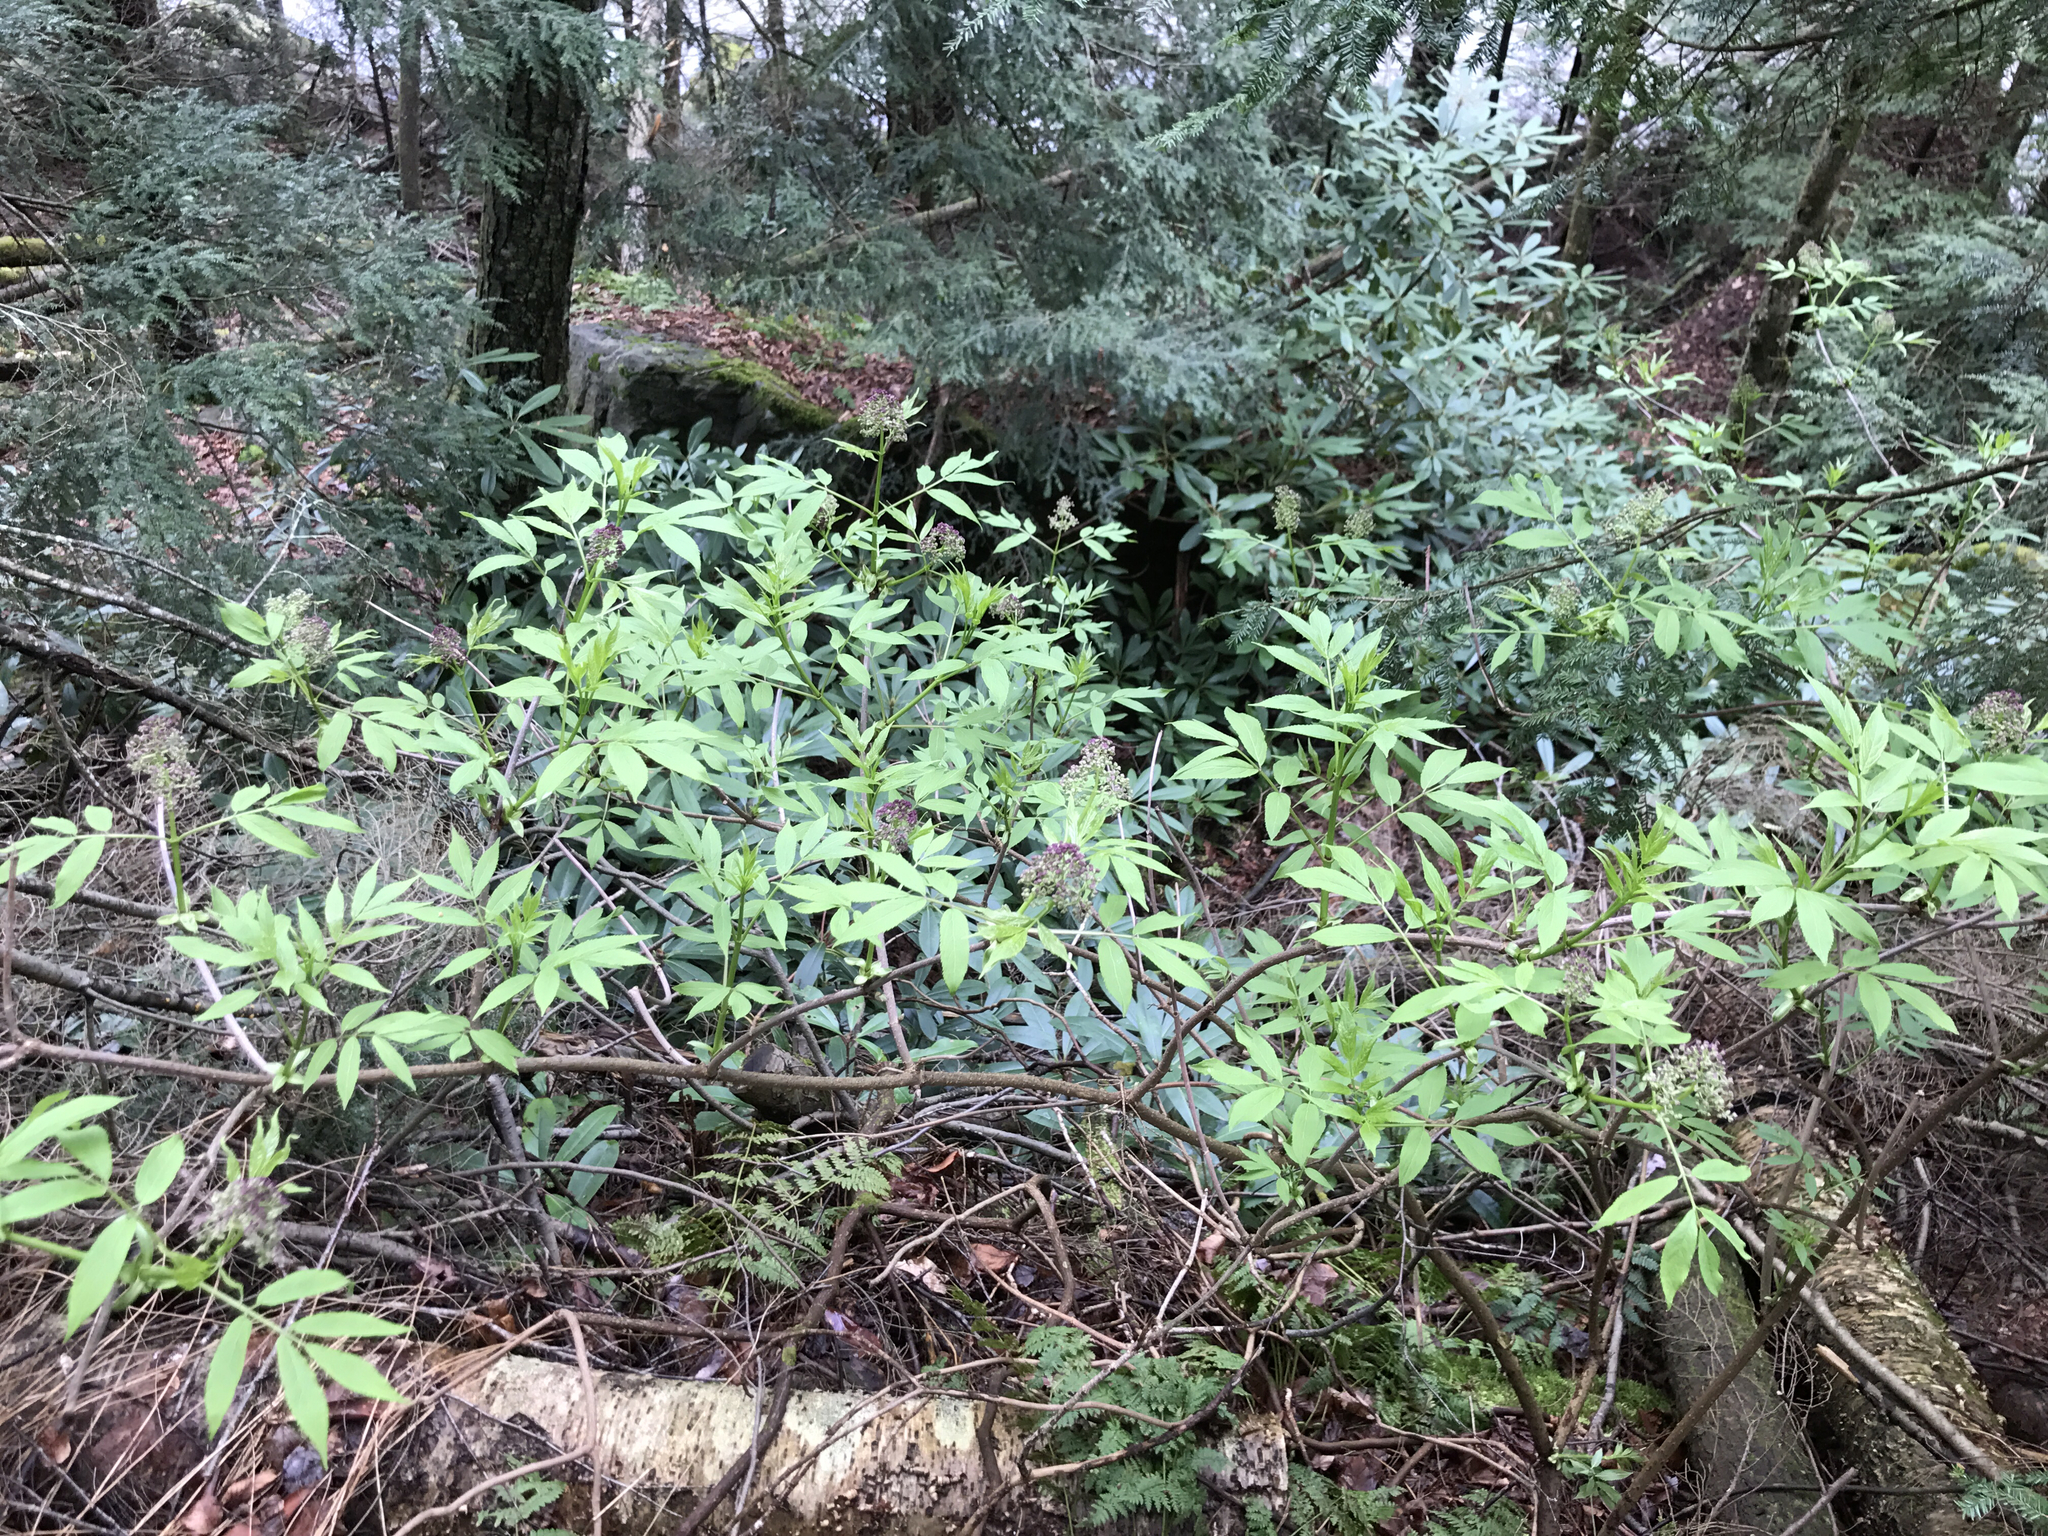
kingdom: Plantae
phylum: Tracheophyta
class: Magnoliopsida
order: Dipsacales
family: Viburnaceae
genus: Sambucus
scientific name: Sambucus racemosa
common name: Red-berried elder
